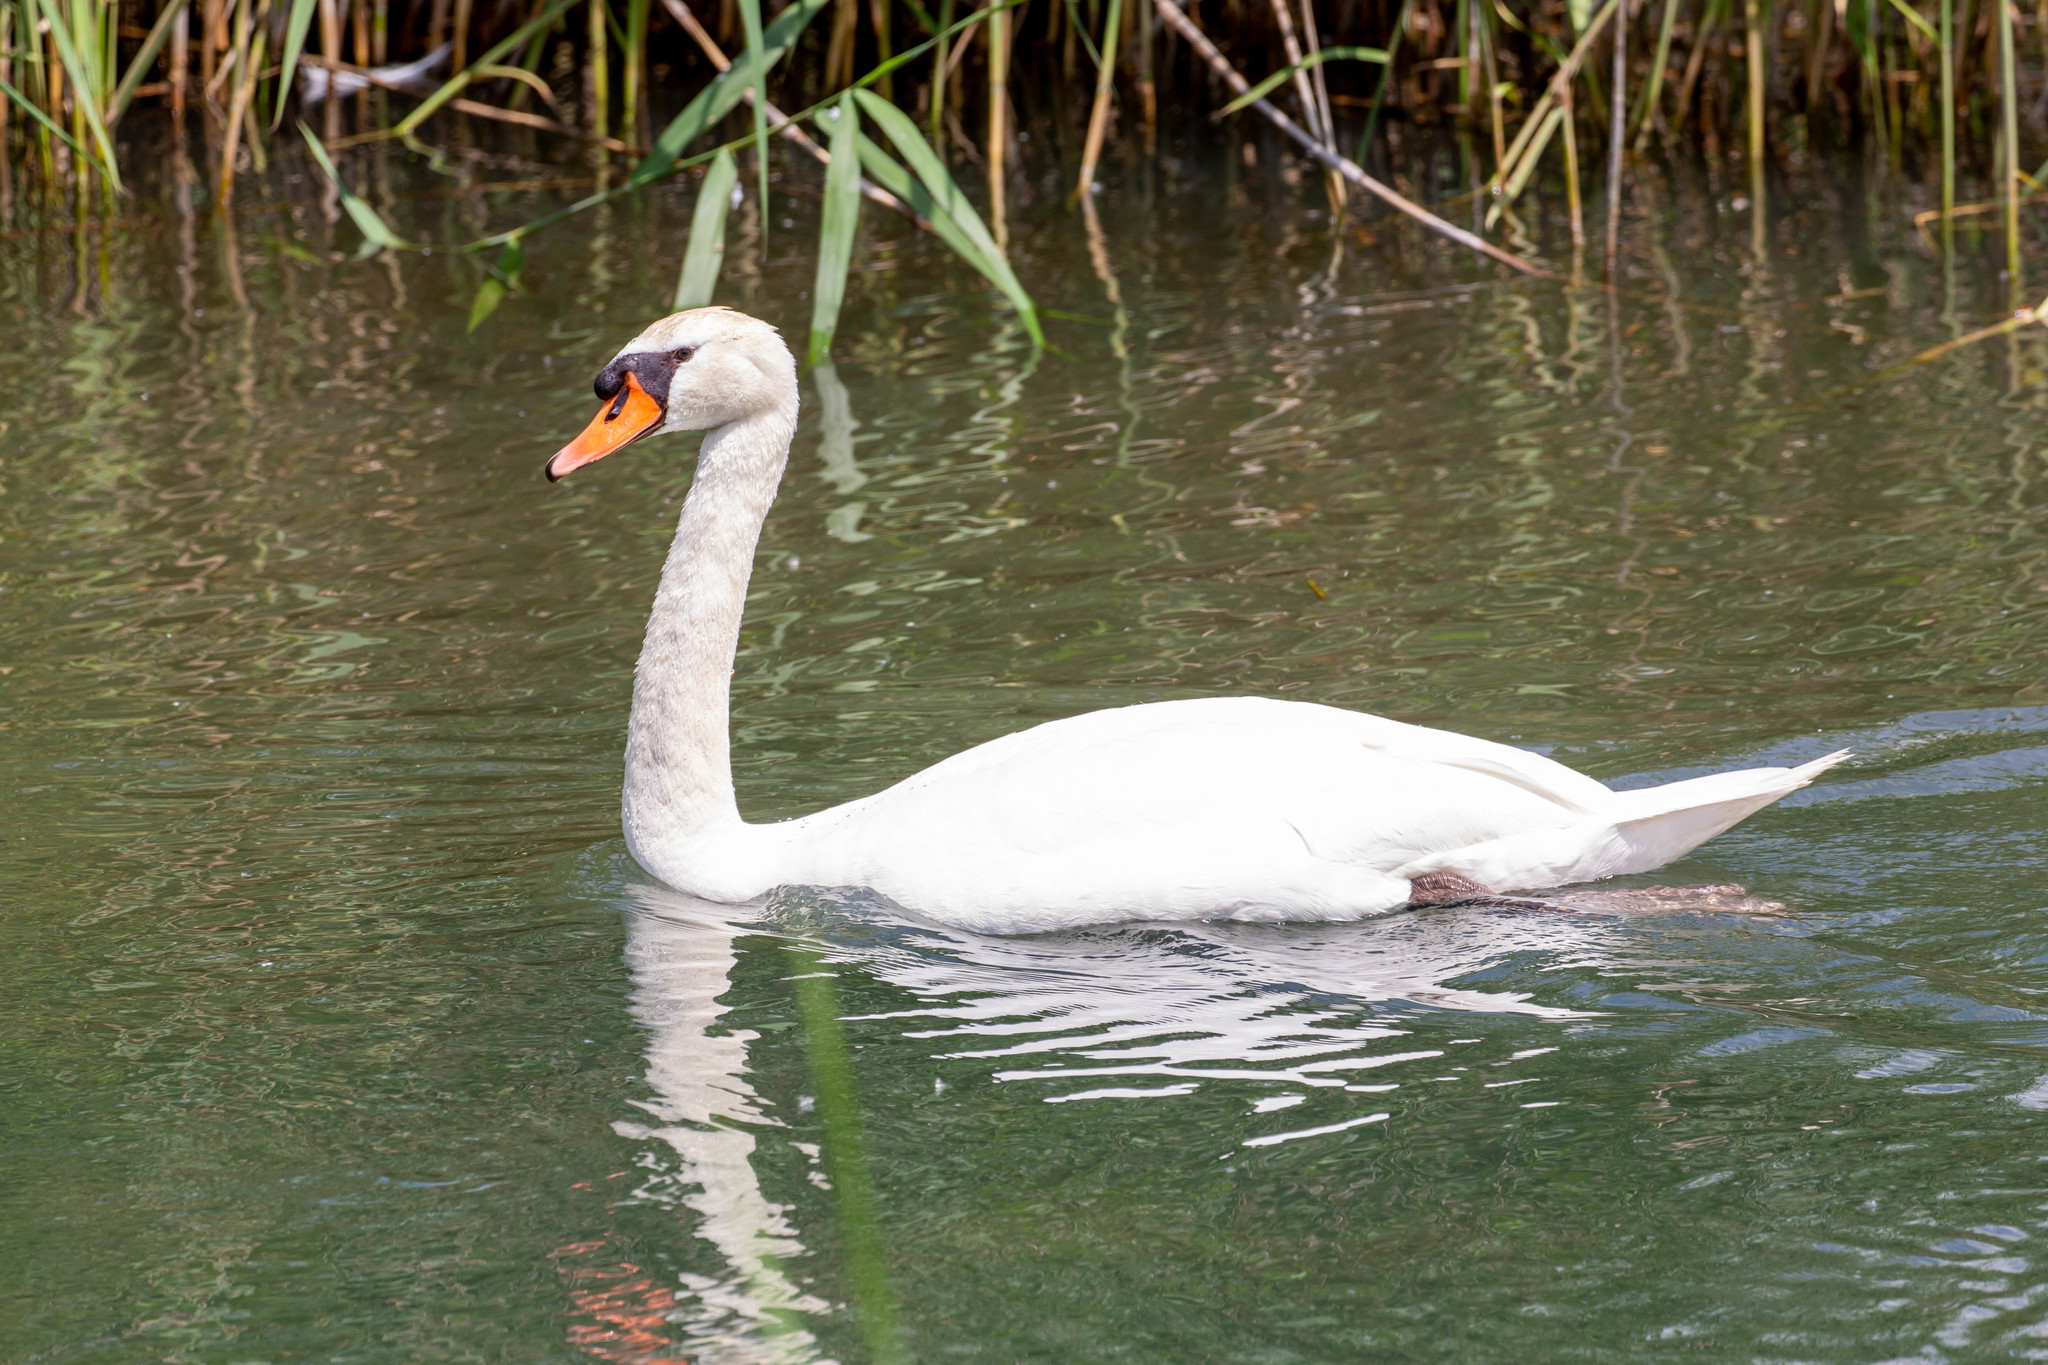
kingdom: Animalia
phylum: Chordata
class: Aves
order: Anseriformes
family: Anatidae
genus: Cygnus
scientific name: Cygnus olor
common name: Mute swan
